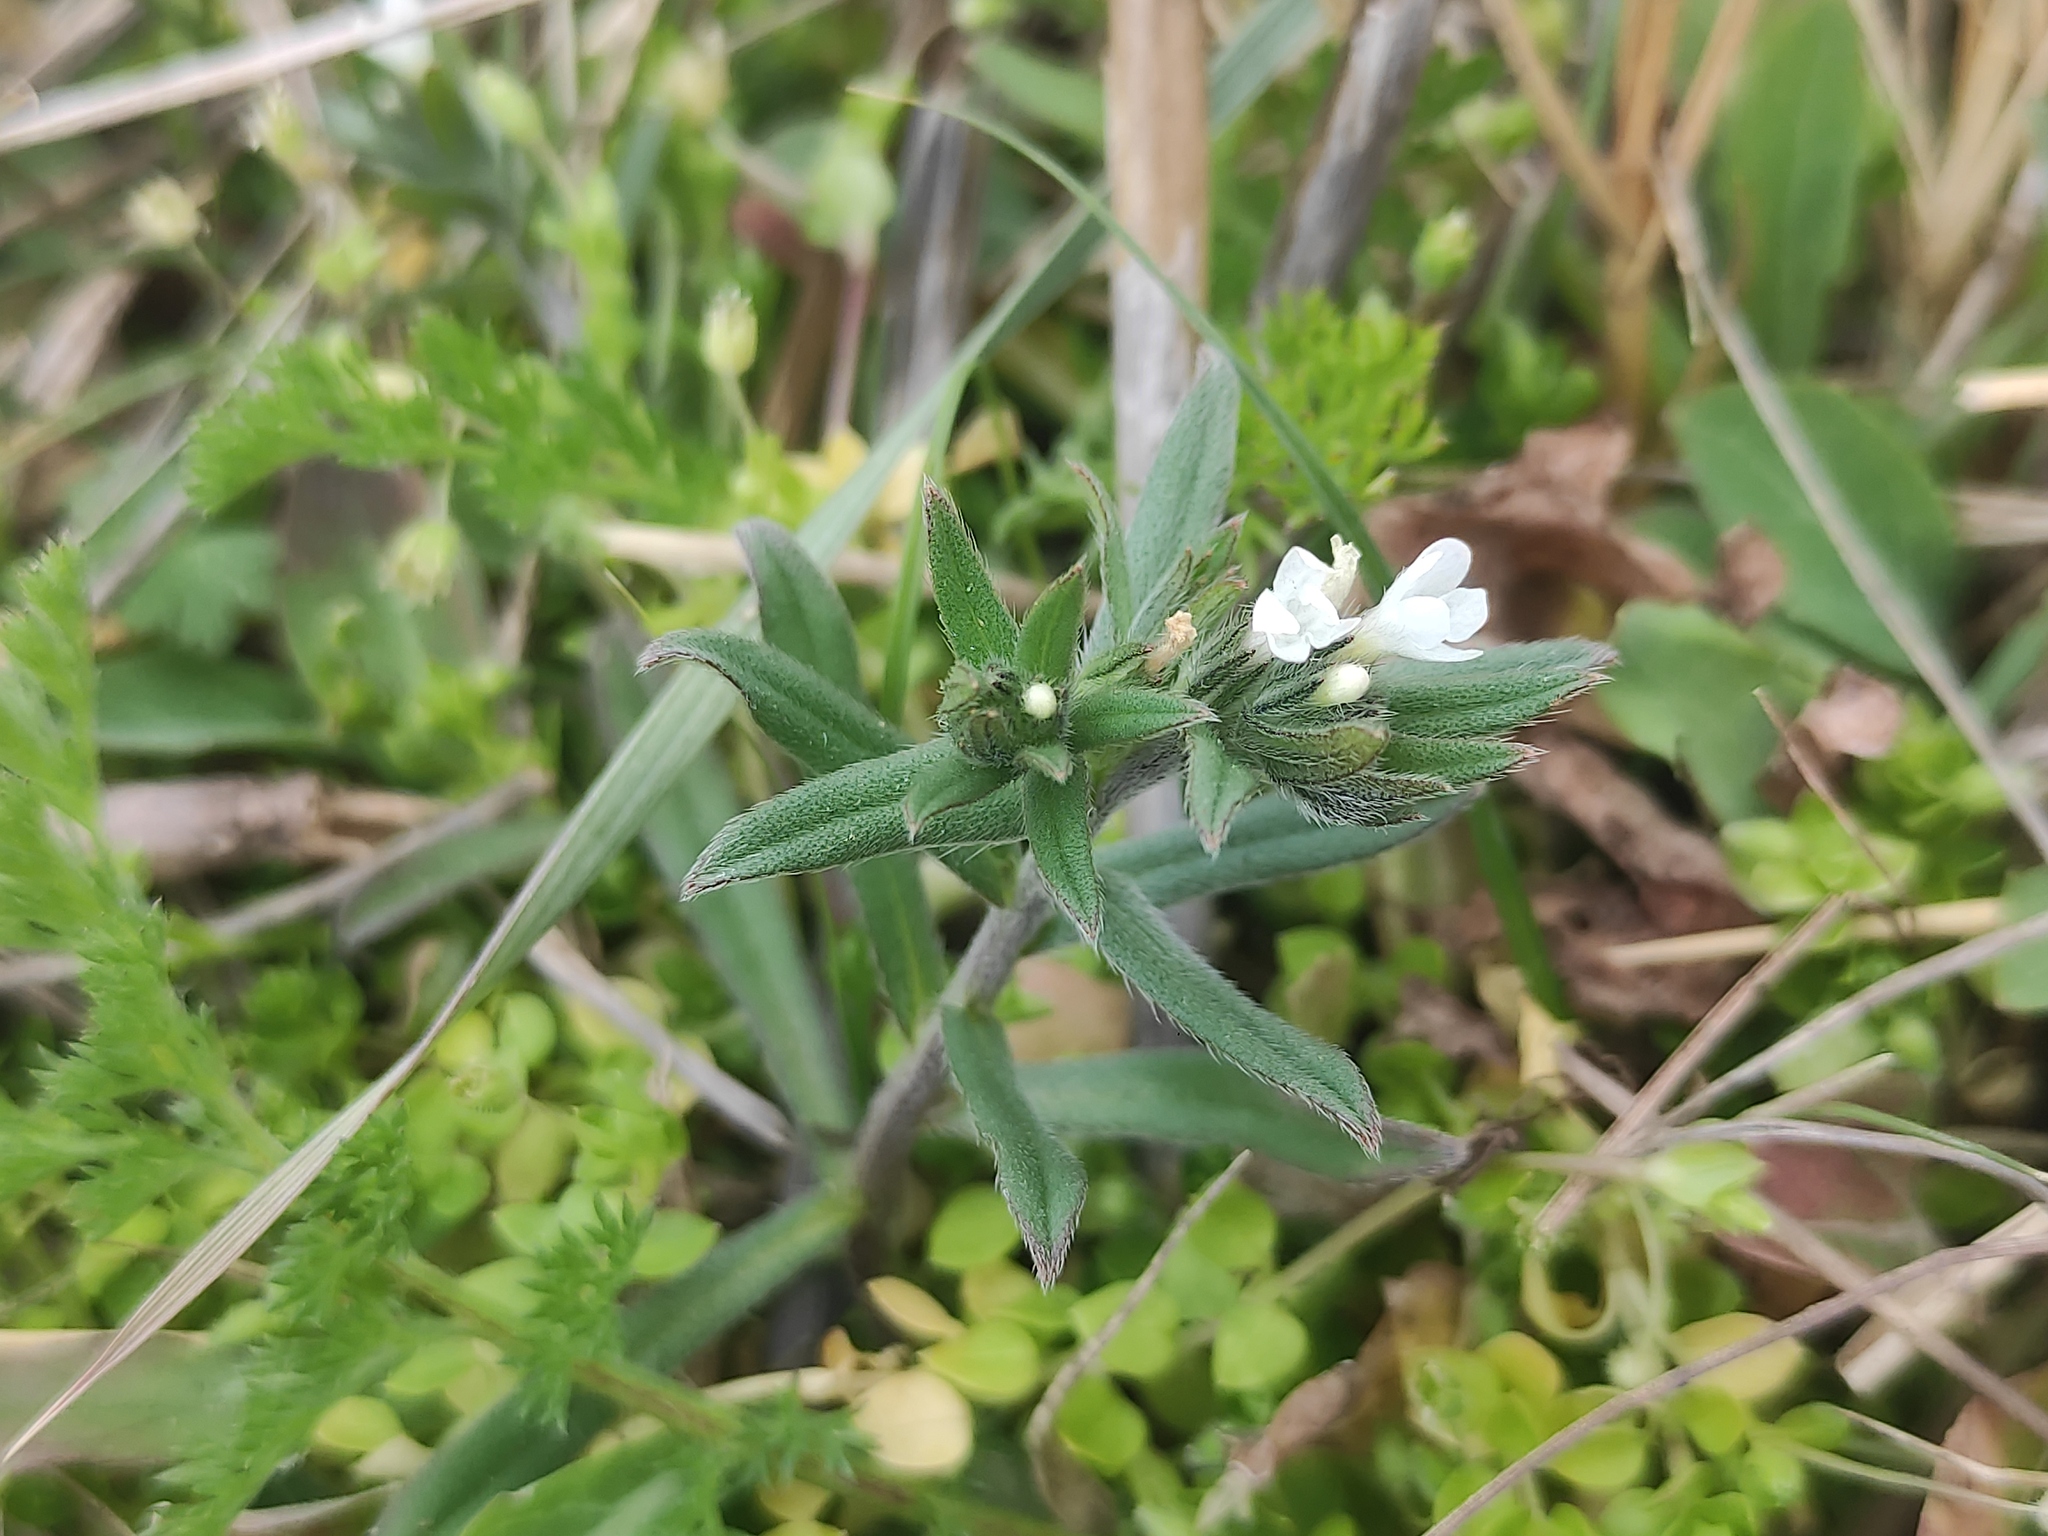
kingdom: Plantae
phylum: Tracheophyta
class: Magnoliopsida
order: Boraginales
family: Boraginaceae
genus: Buglossoides
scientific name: Buglossoides arvensis
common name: Corn gromwell
